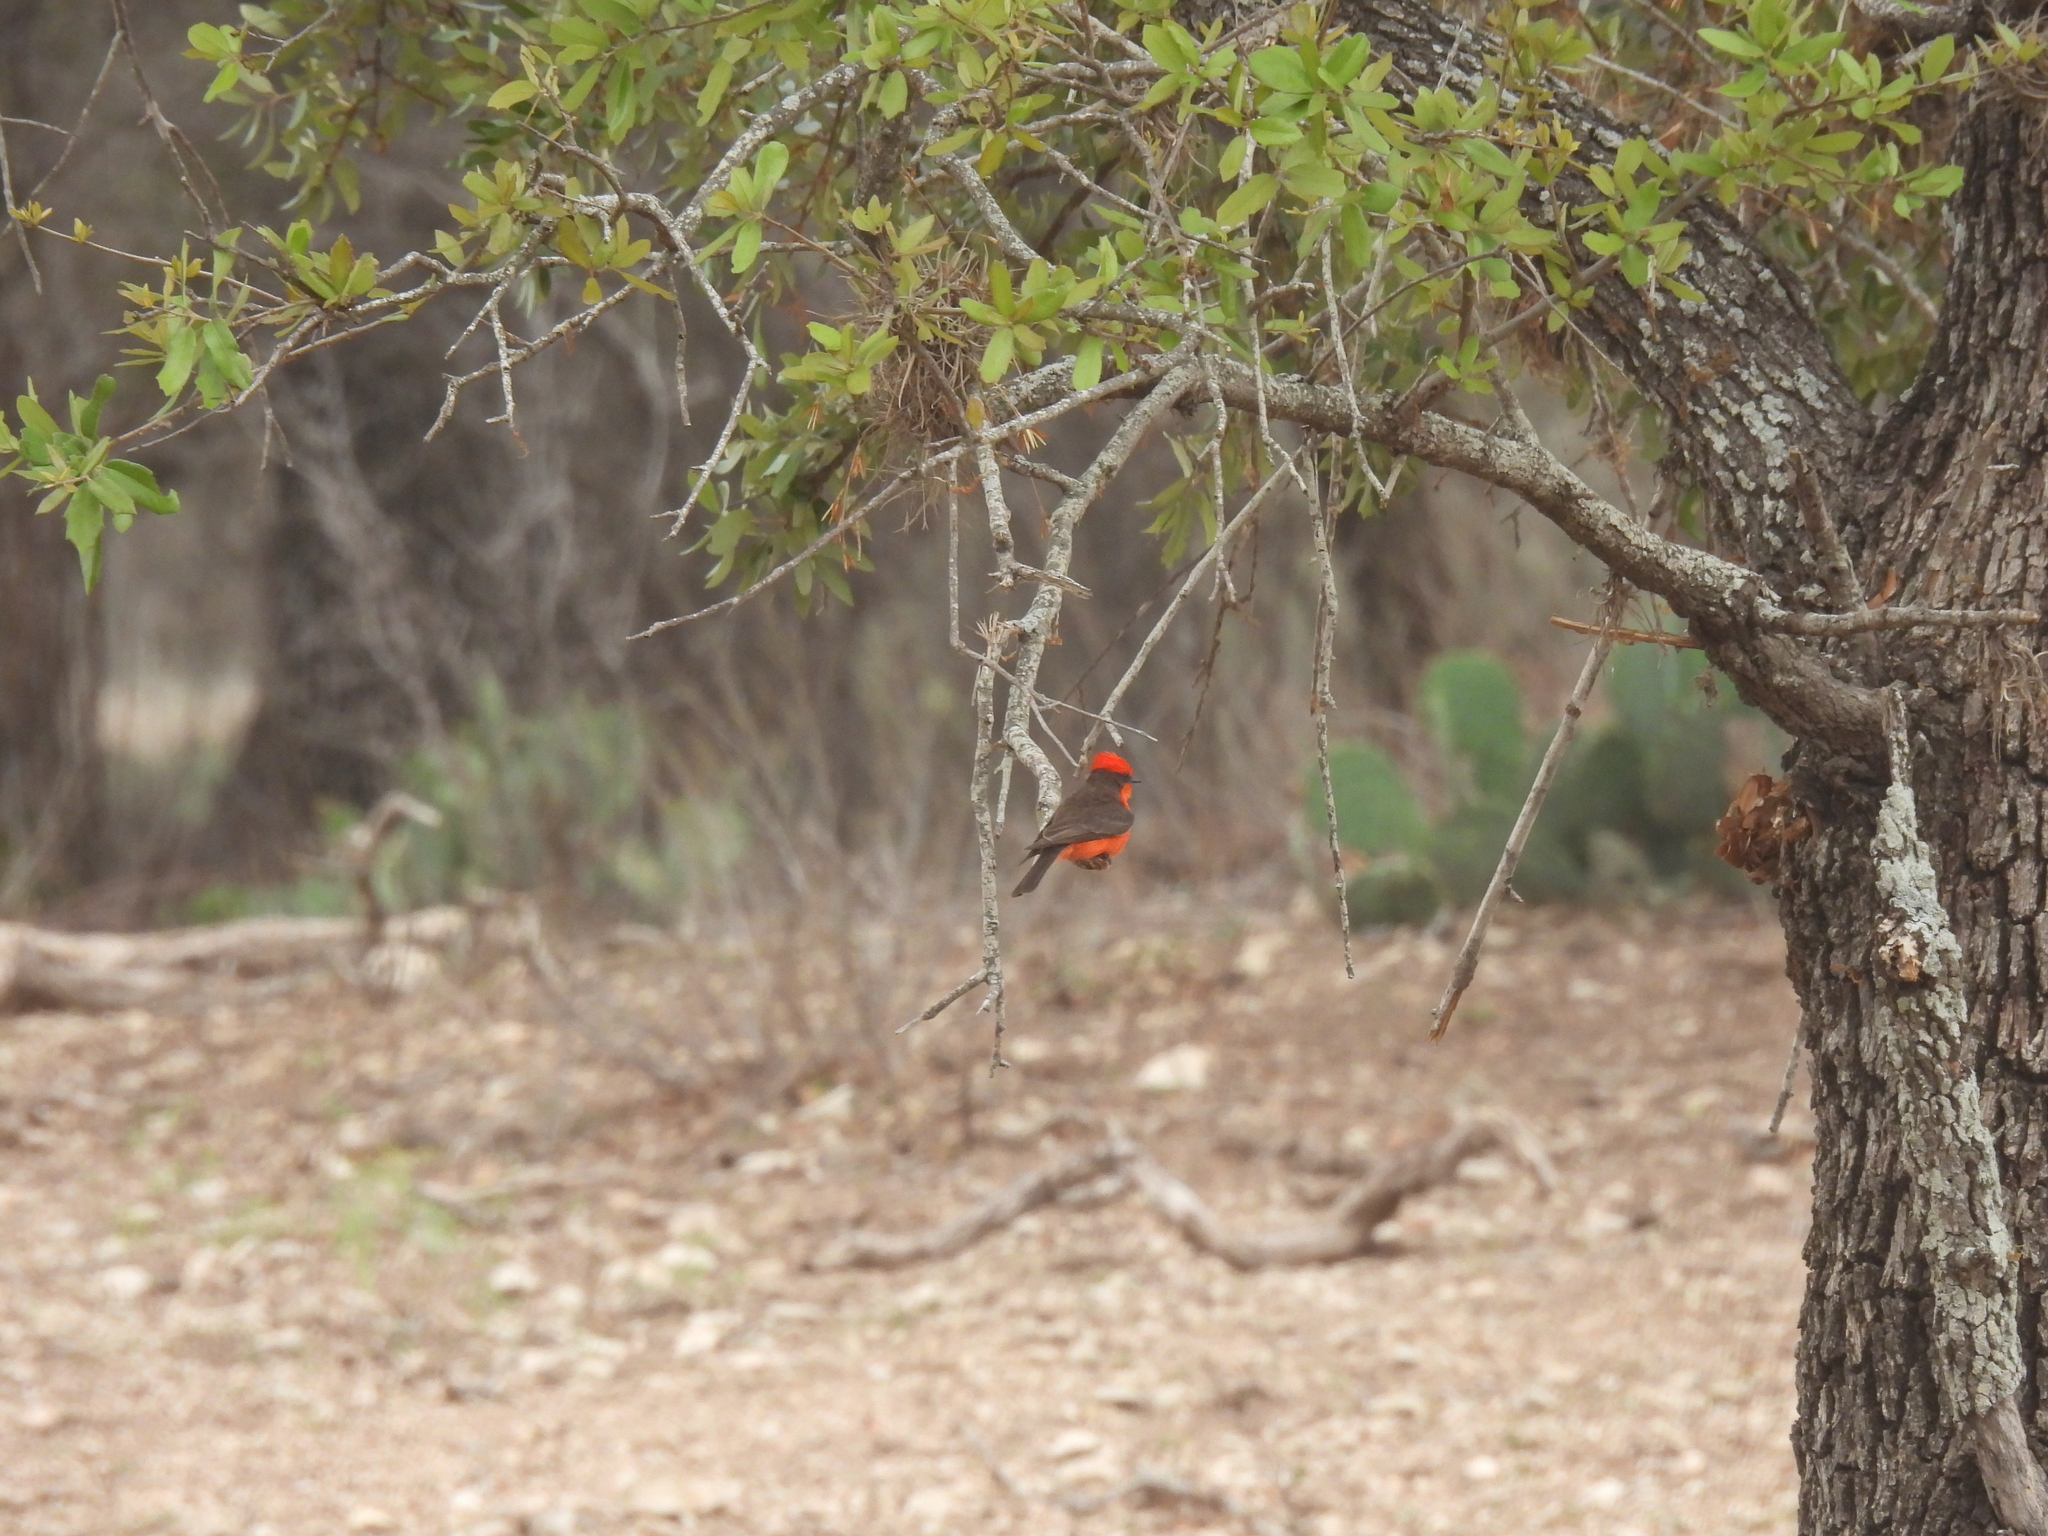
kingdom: Animalia
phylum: Chordata
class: Aves
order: Passeriformes
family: Tyrannidae
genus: Pyrocephalus
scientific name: Pyrocephalus rubinus
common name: Vermilion flycatcher
